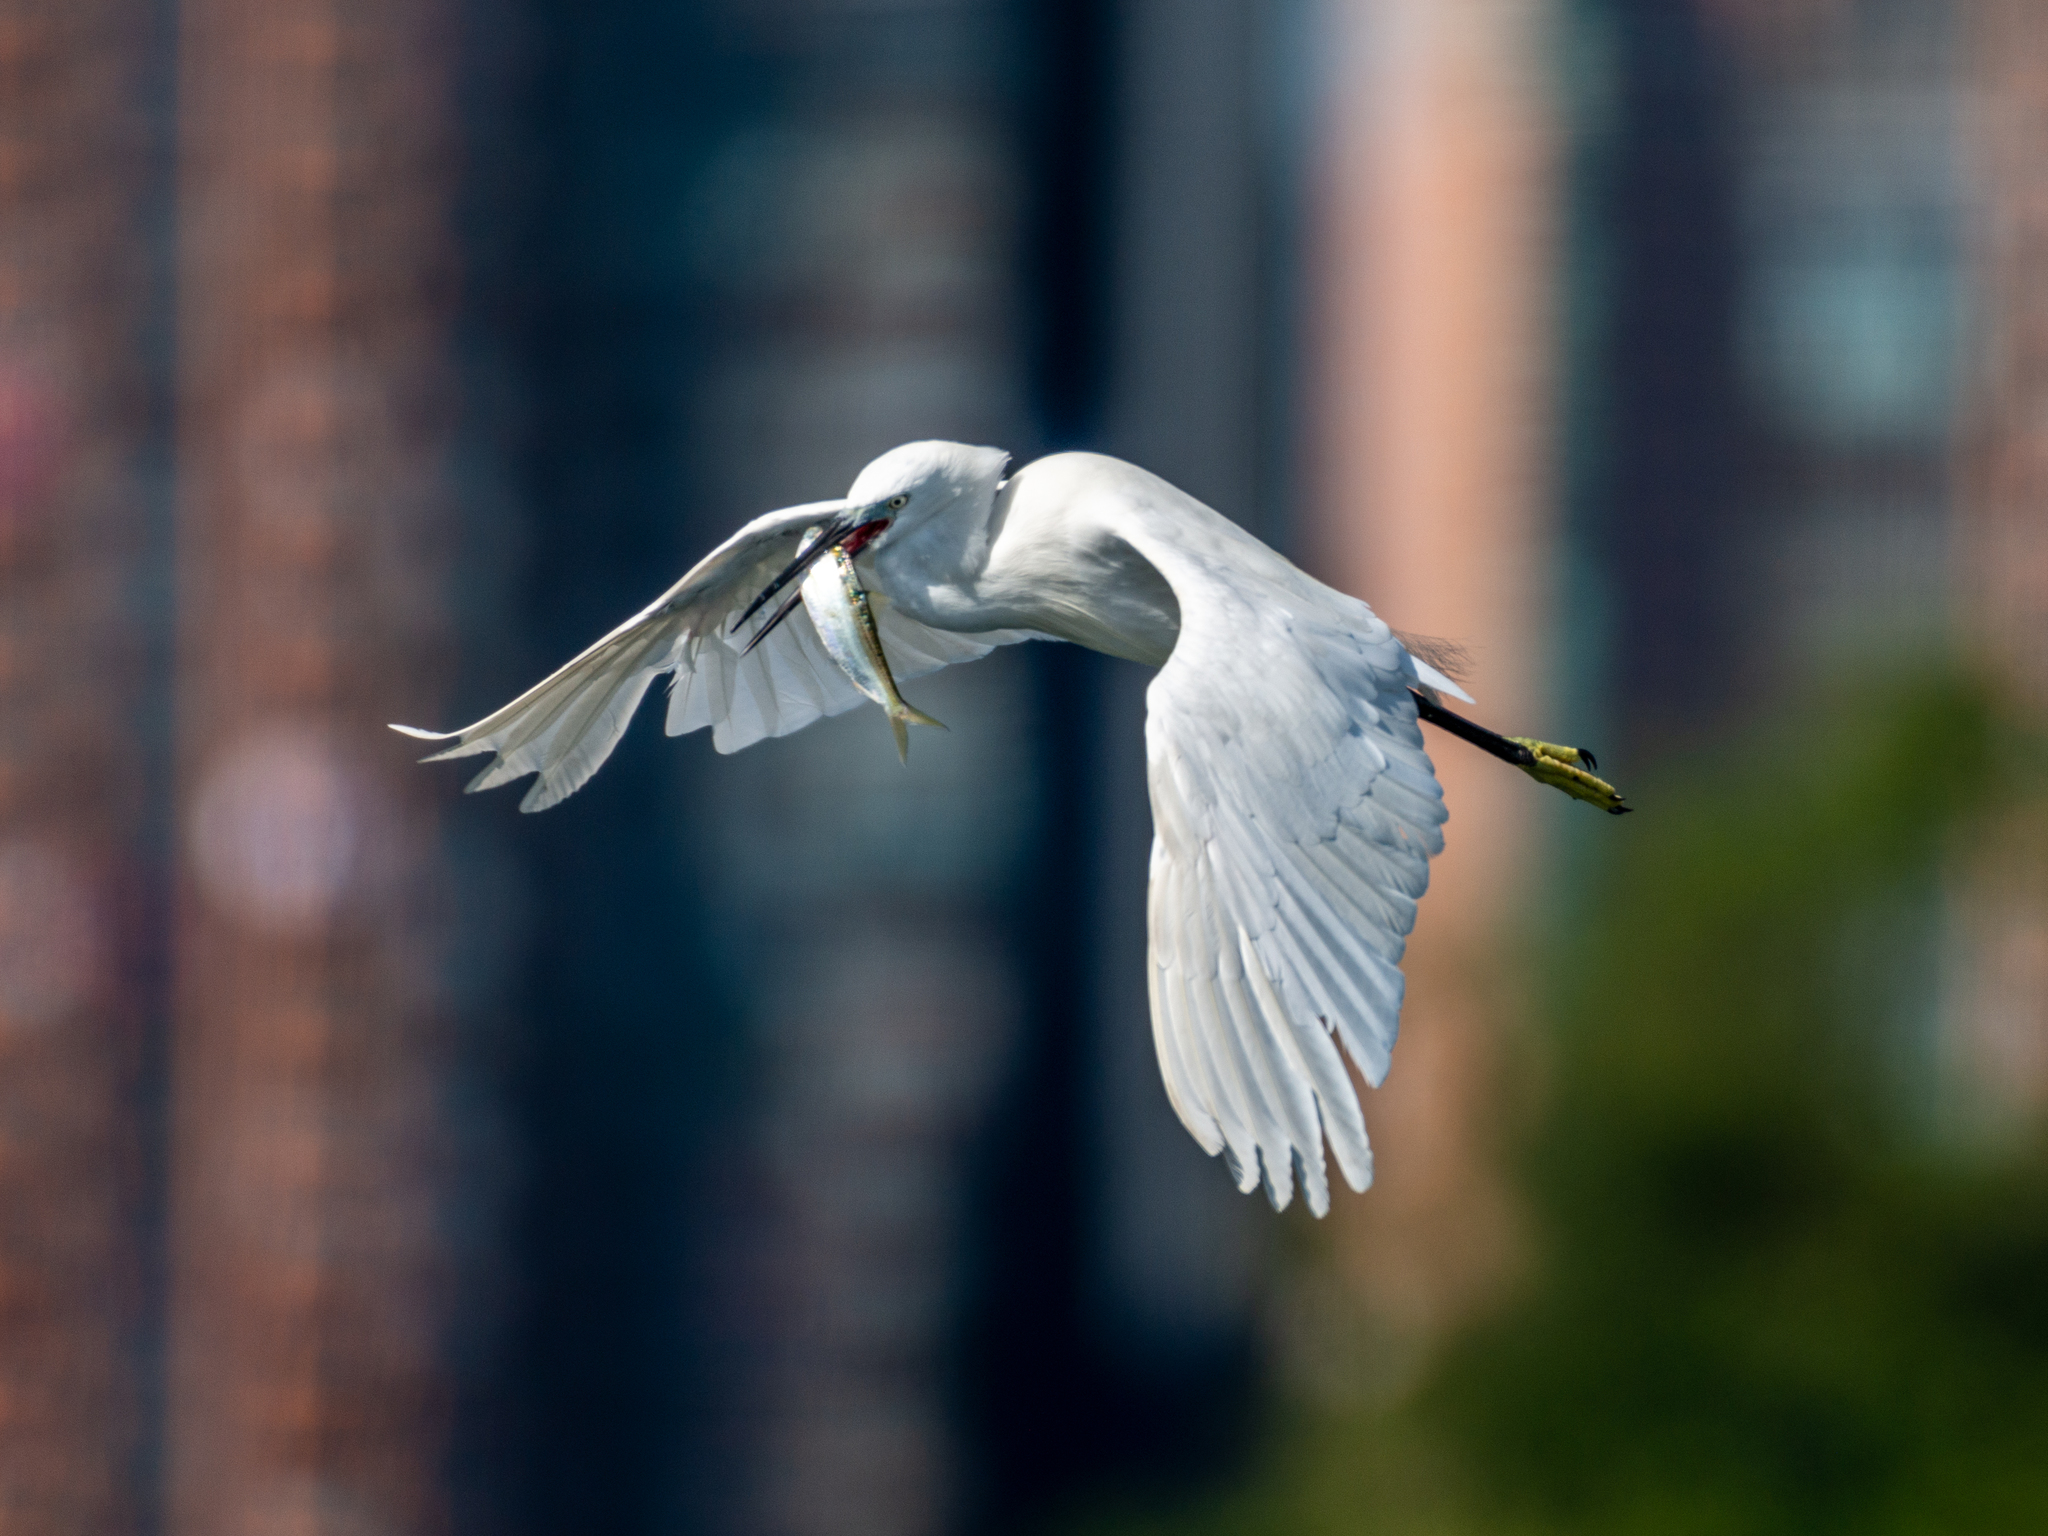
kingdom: Animalia
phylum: Chordata
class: Aves
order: Pelecaniformes
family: Ardeidae
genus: Egretta
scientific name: Egretta garzetta
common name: Little egret
